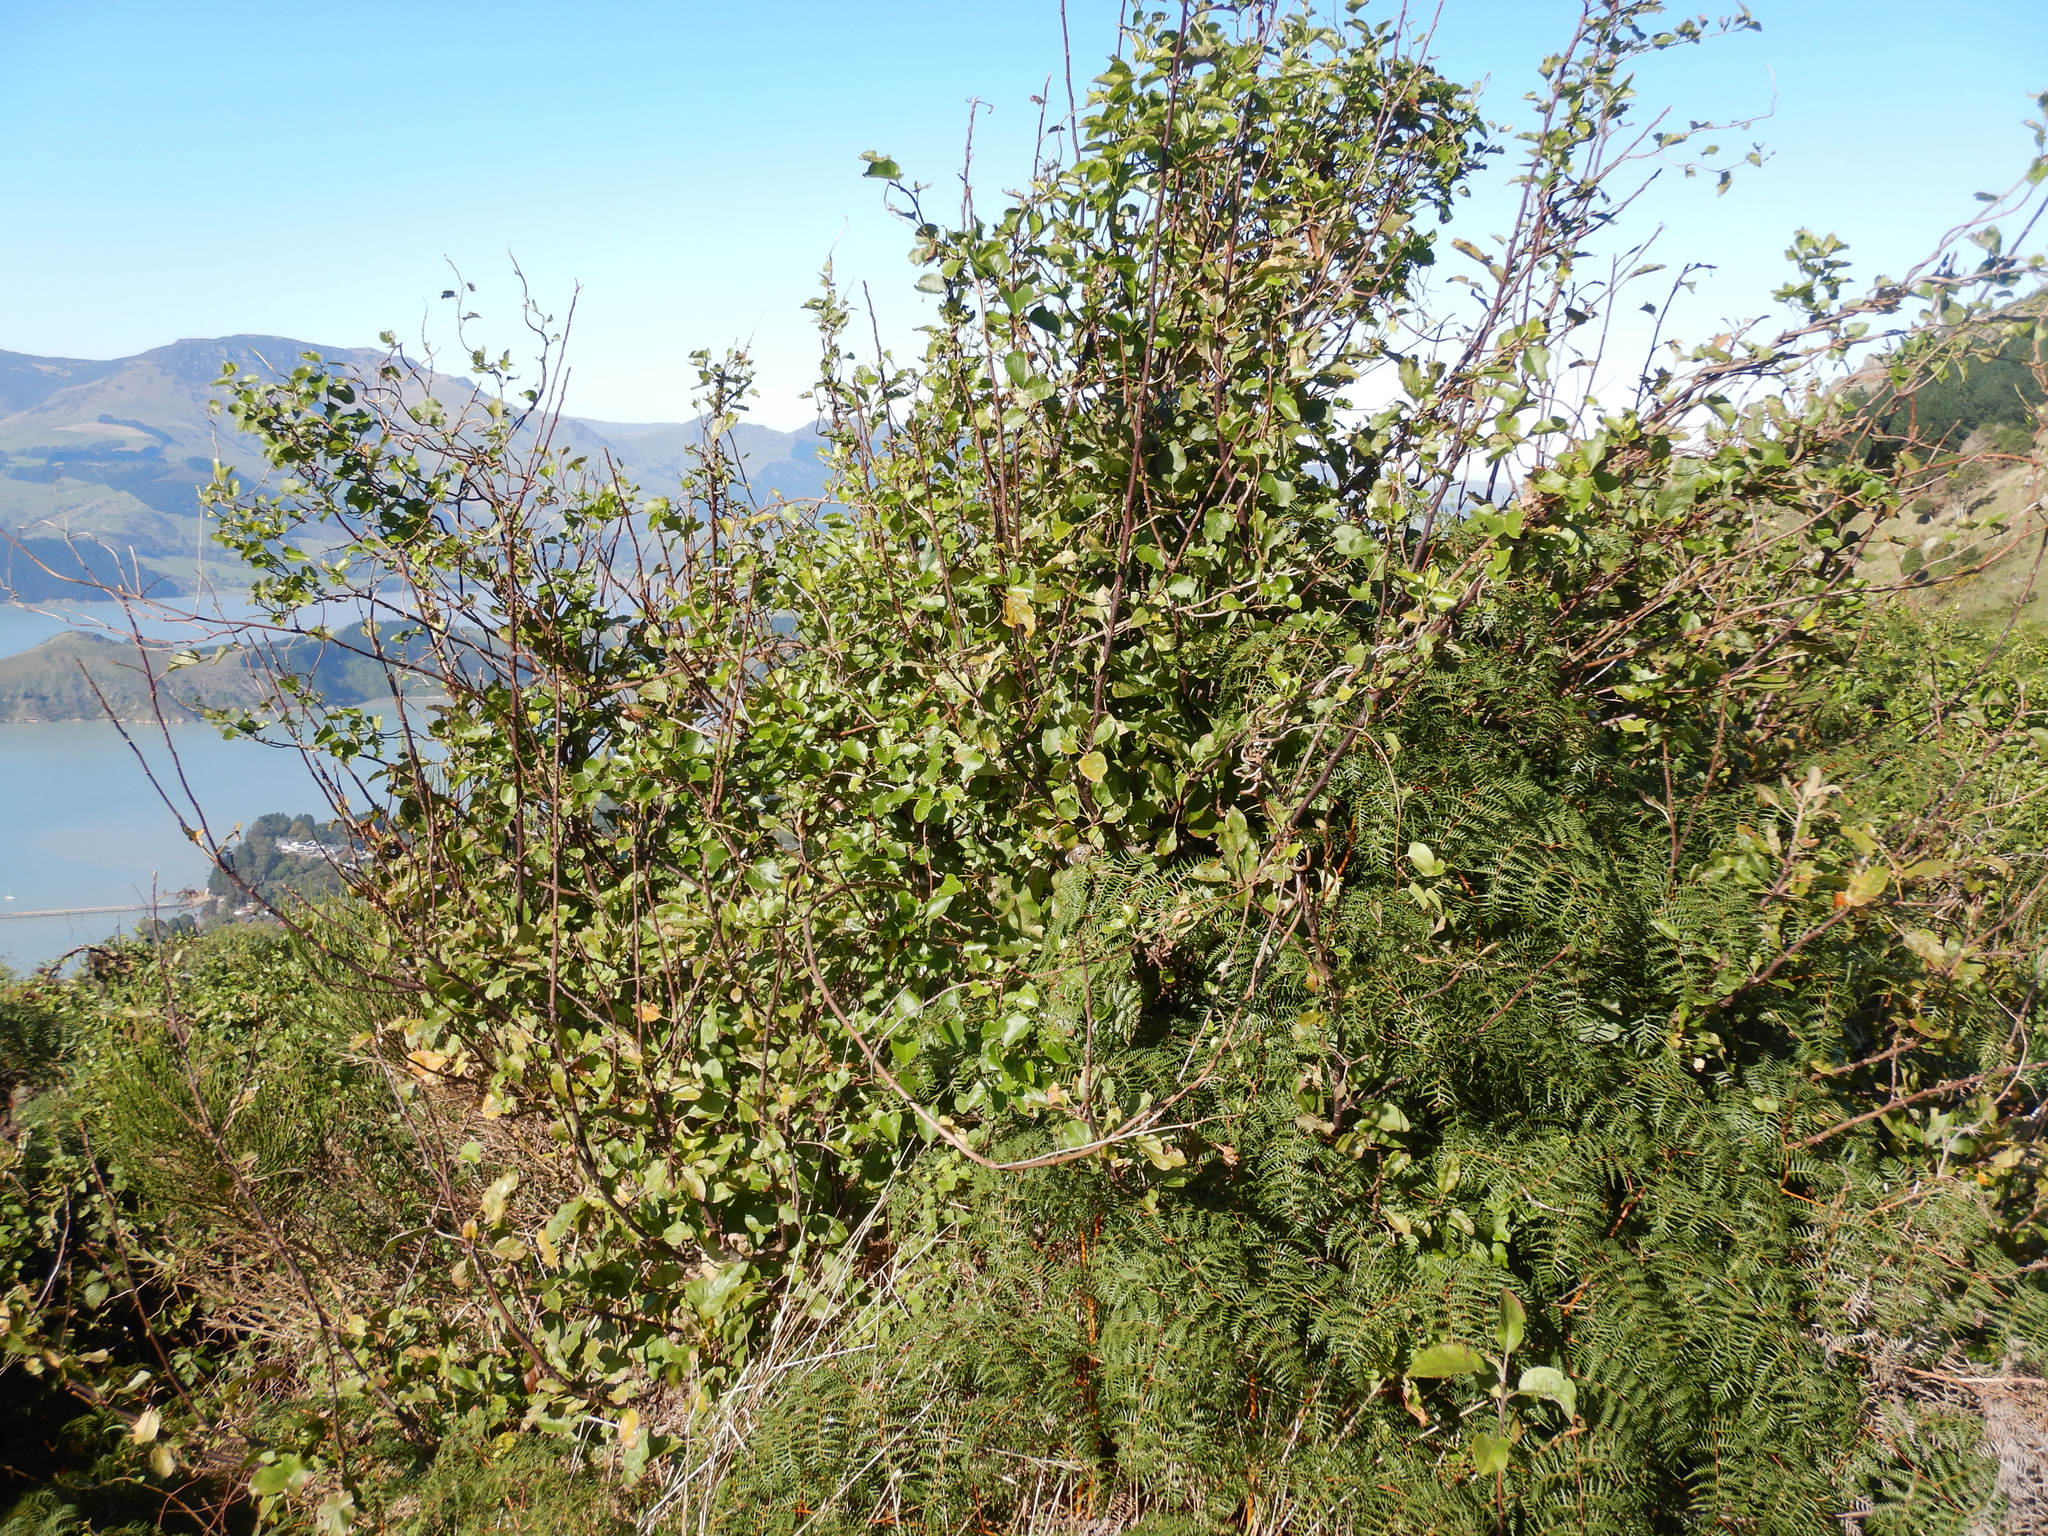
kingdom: Plantae
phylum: Tracheophyta
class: Magnoliopsida
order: Rosales
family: Rosaceae
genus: Malus
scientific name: Malus domestica
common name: Apple
